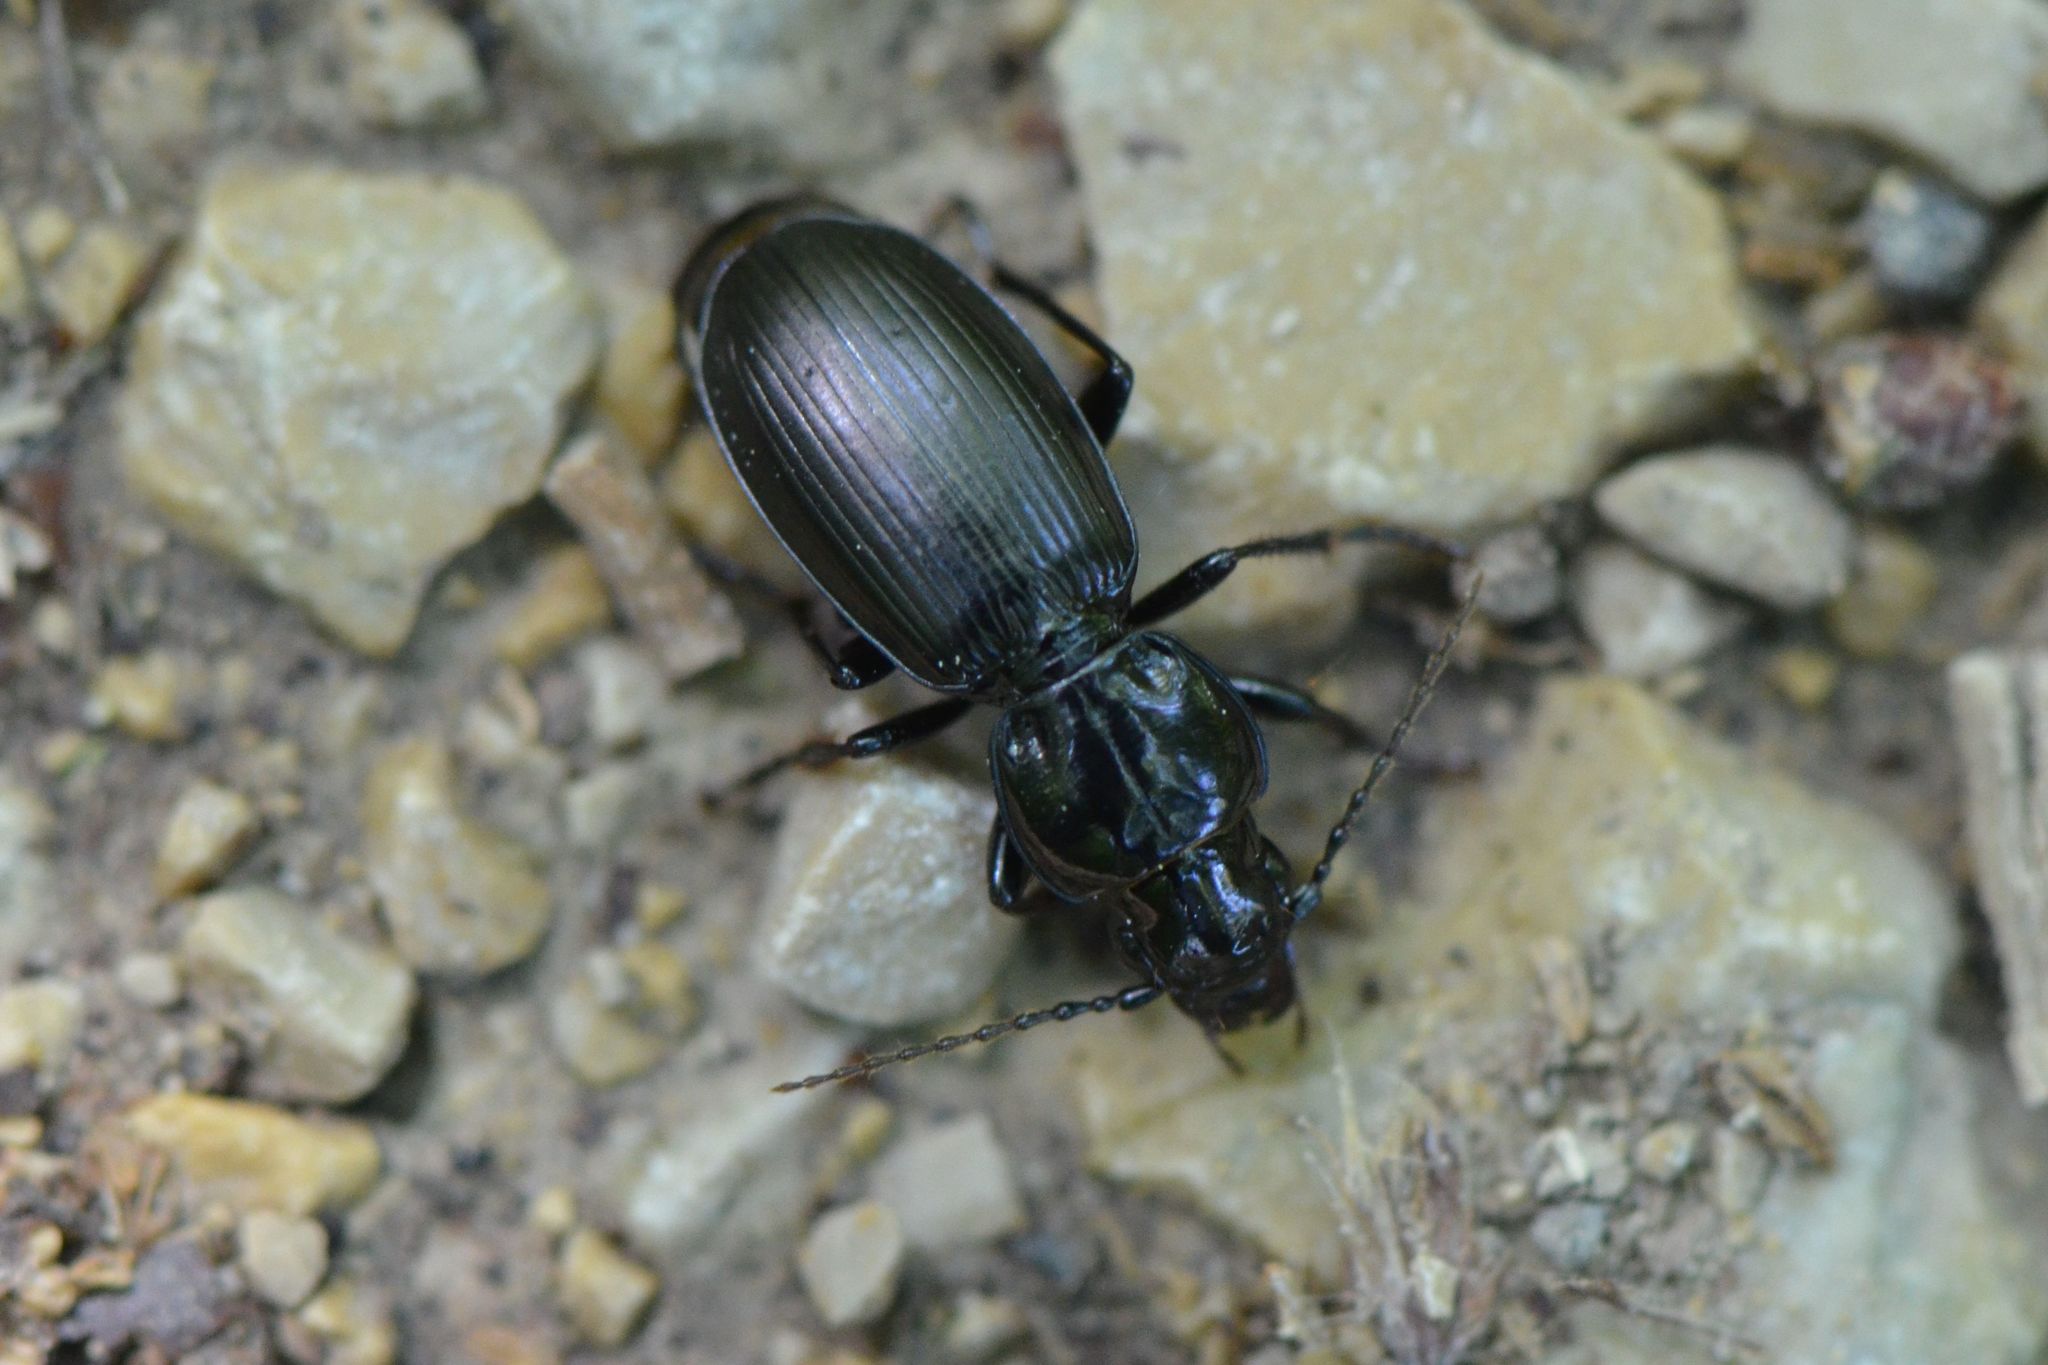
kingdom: Animalia
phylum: Arthropoda
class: Insecta
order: Coleoptera
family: Carabidae
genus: Pterostichus
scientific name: Pterostichus madidus
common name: Black clock
